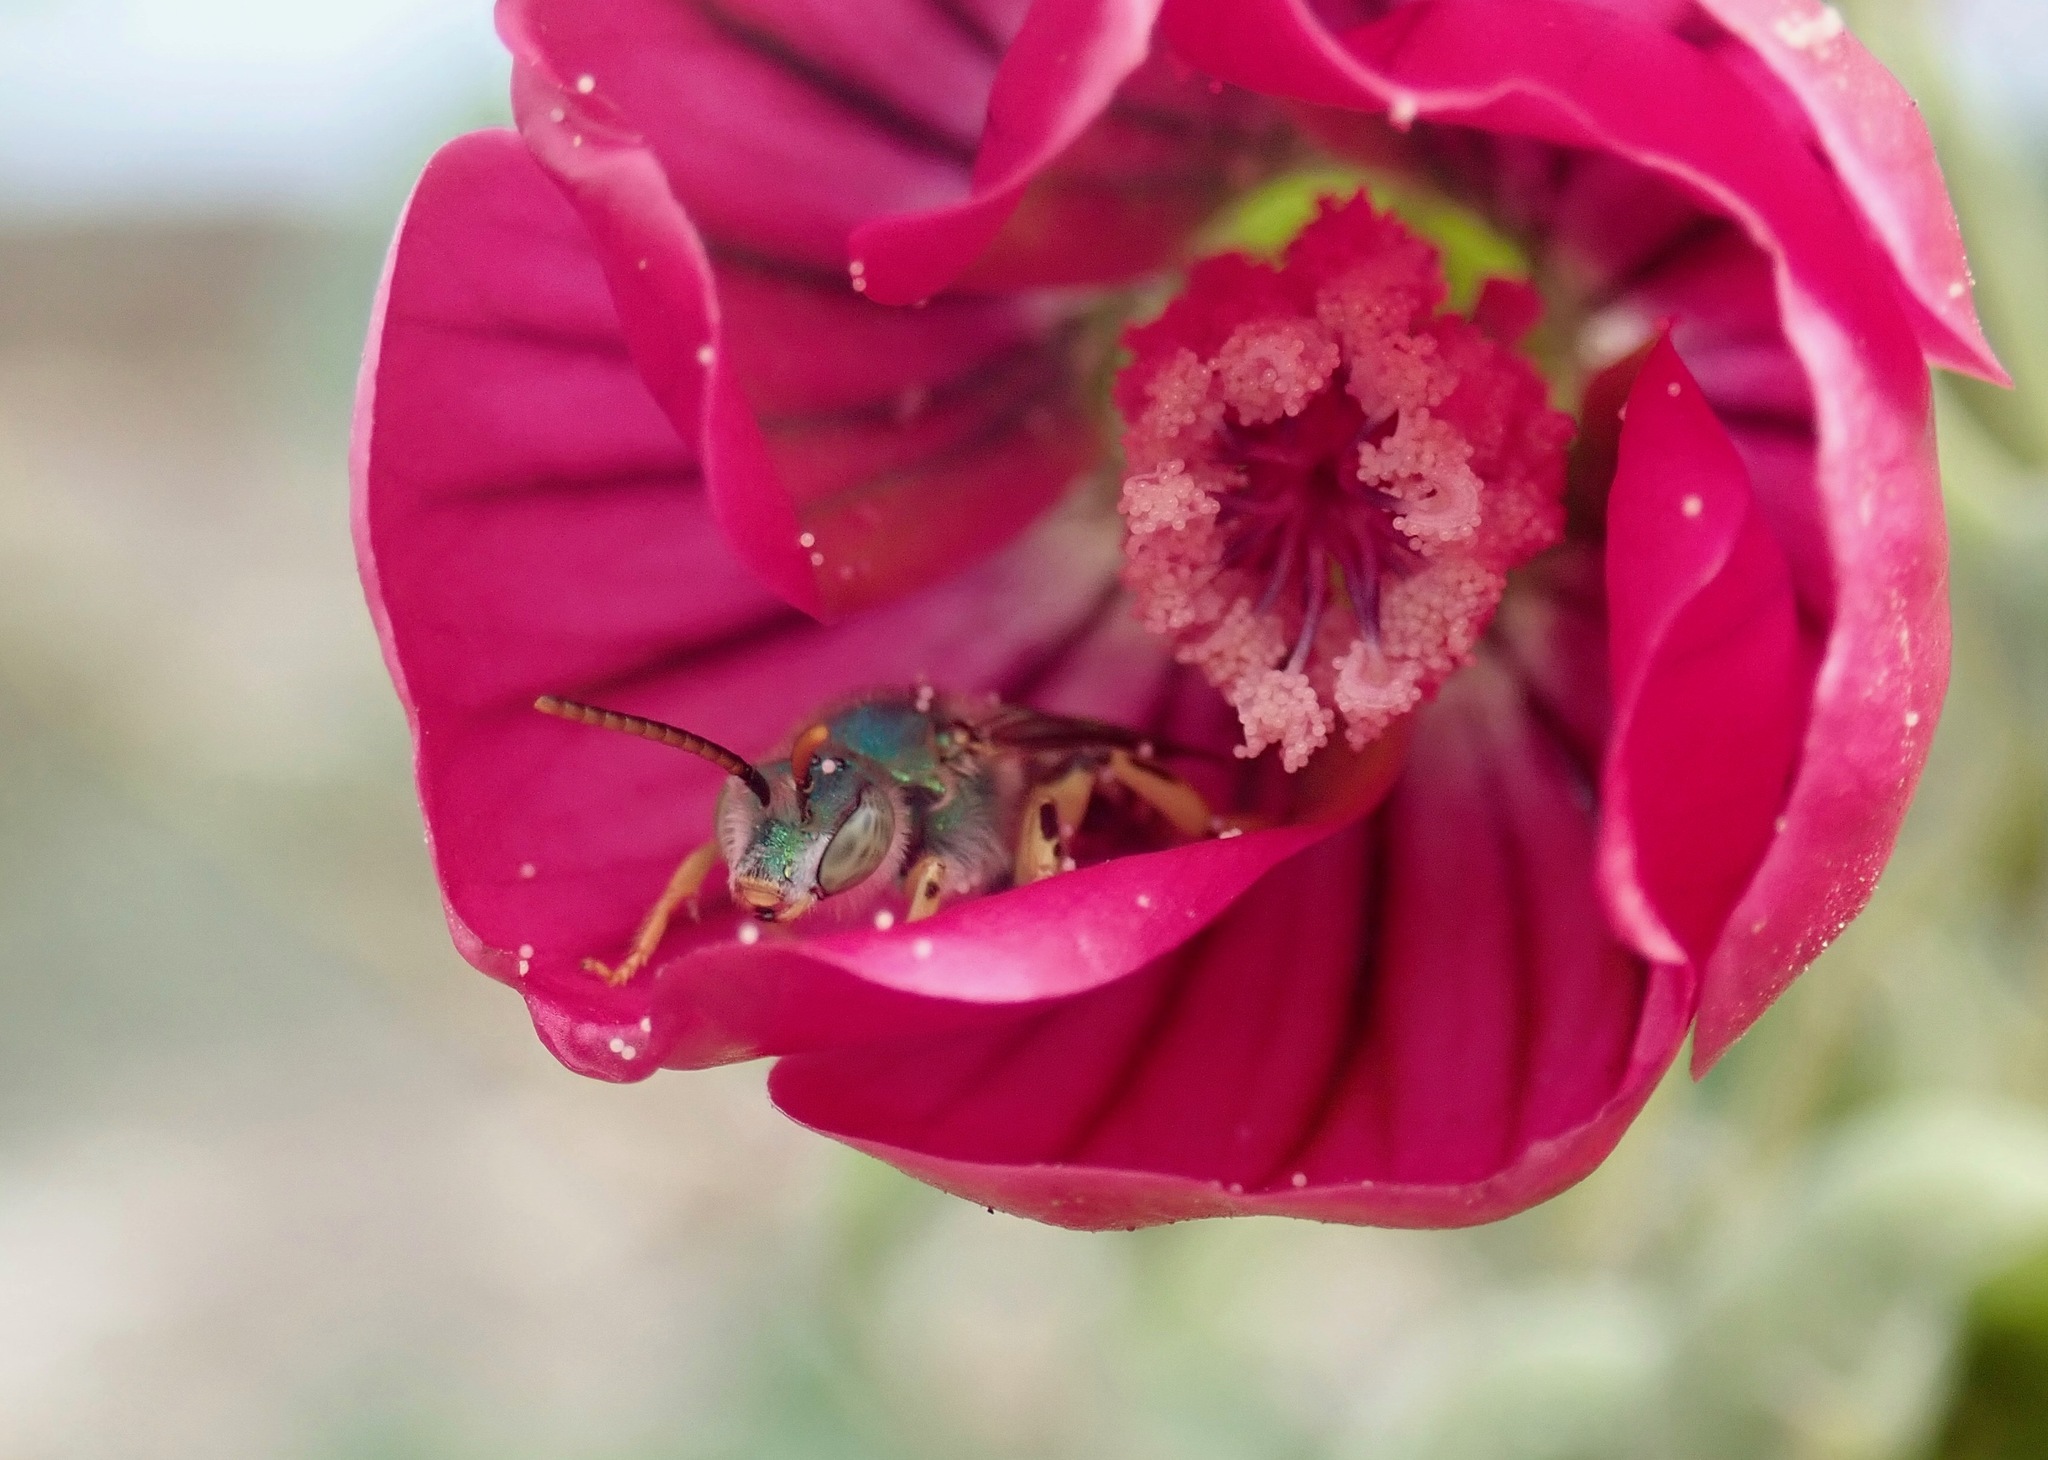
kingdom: Animalia
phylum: Arthropoda
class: Insecta
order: Hymenoptera
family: Halictidae
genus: Agapostemon
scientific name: Agapostemon texanus
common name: Texas striped sweat bee
